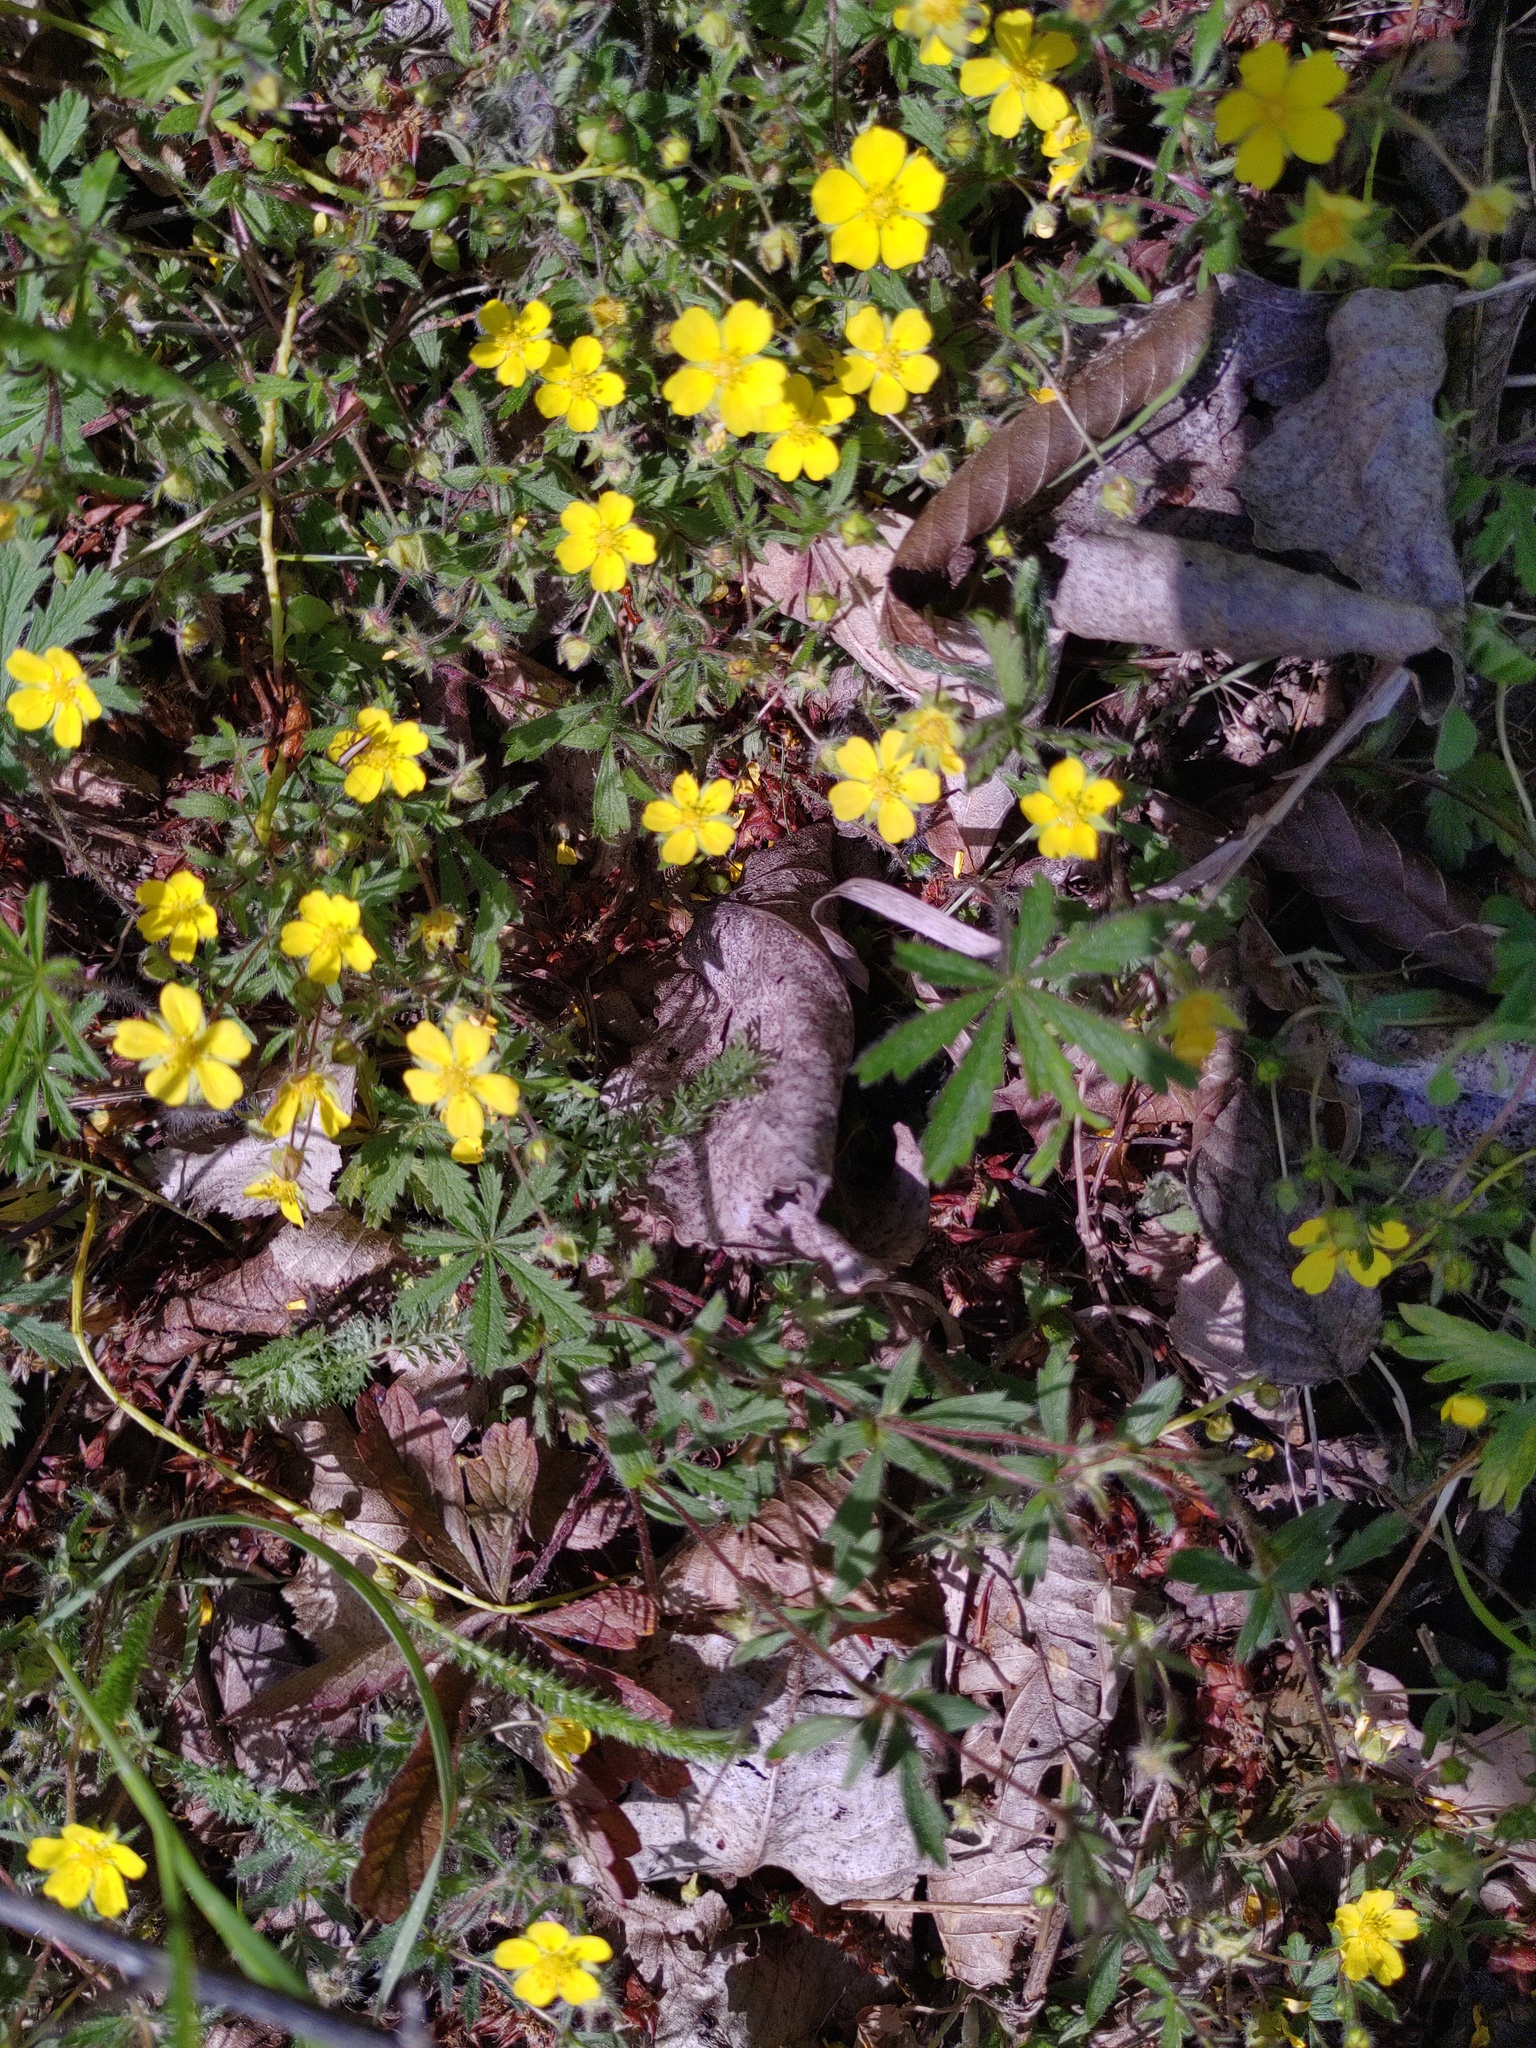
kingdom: Plantae
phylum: Tracheophyta
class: Magnoliopsida
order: Rosales
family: Rosaceae
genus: Potentilla
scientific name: Potentilla heptaphylla
